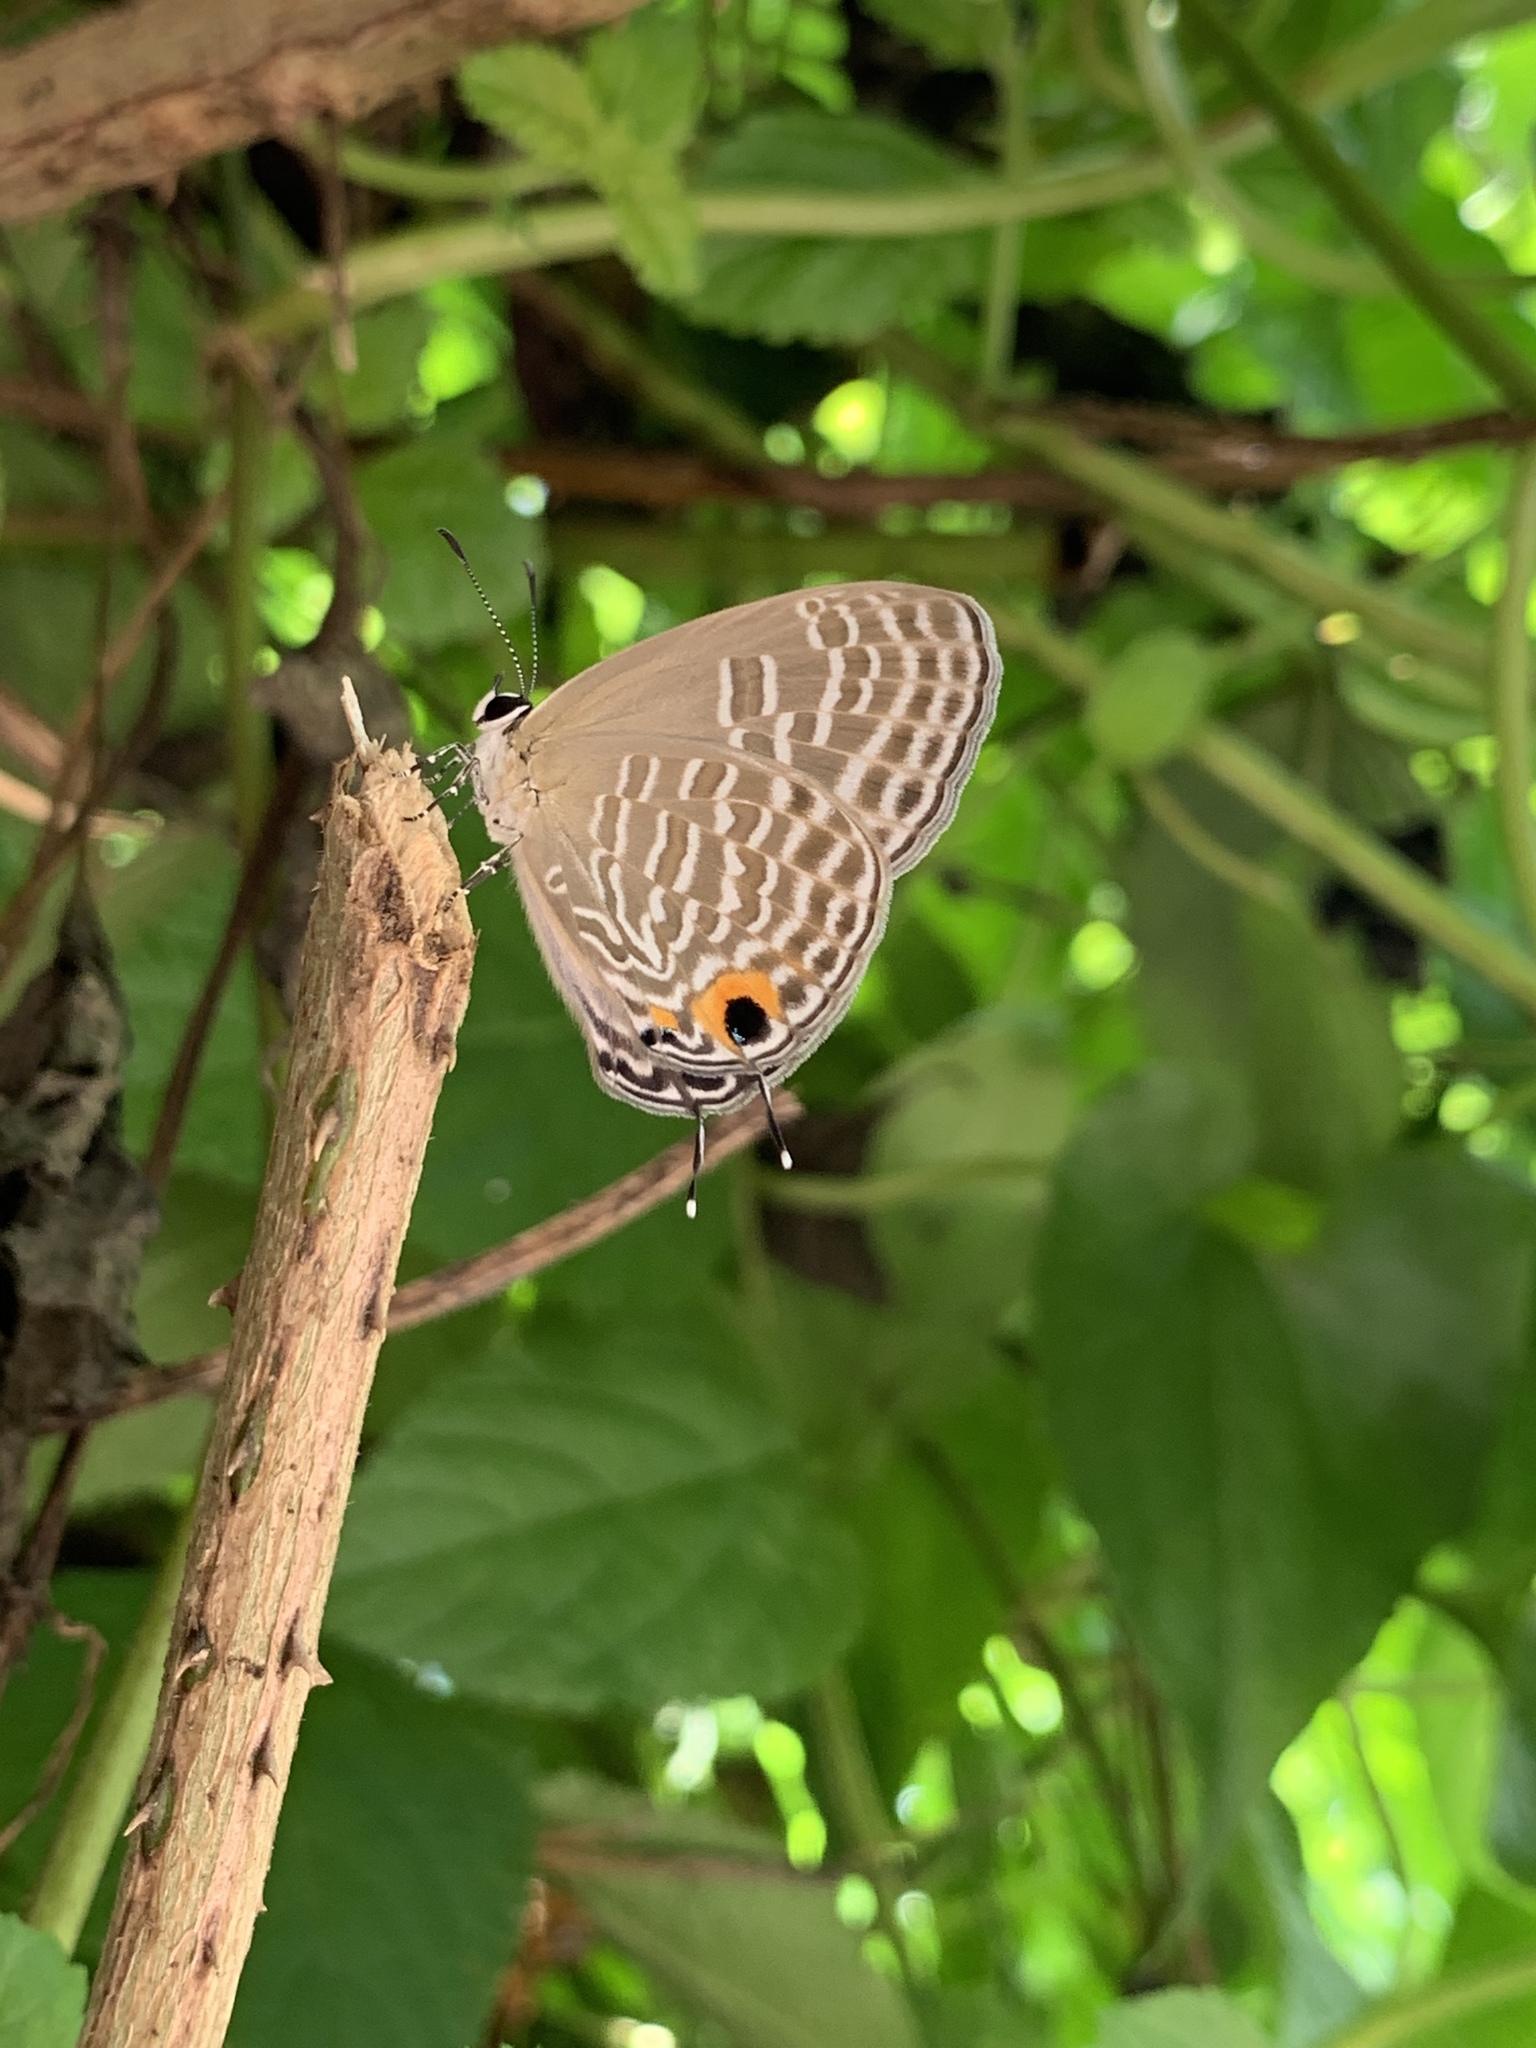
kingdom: Animalia
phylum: Arthropoda
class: Insecta
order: Lepidoptera
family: Lycaenidae
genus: Jamides
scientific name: Jamides alecto
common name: Metallic cerulean
